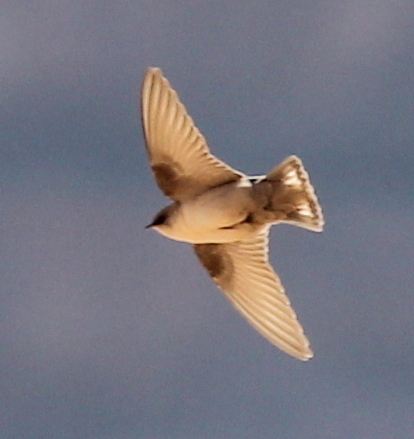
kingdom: Animalia
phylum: Chordata
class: Aves
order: Passeriformes
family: Hirundinidae
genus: Ptyonoprogne
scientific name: Ptyonoprogne fuligula
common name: Rock martin
